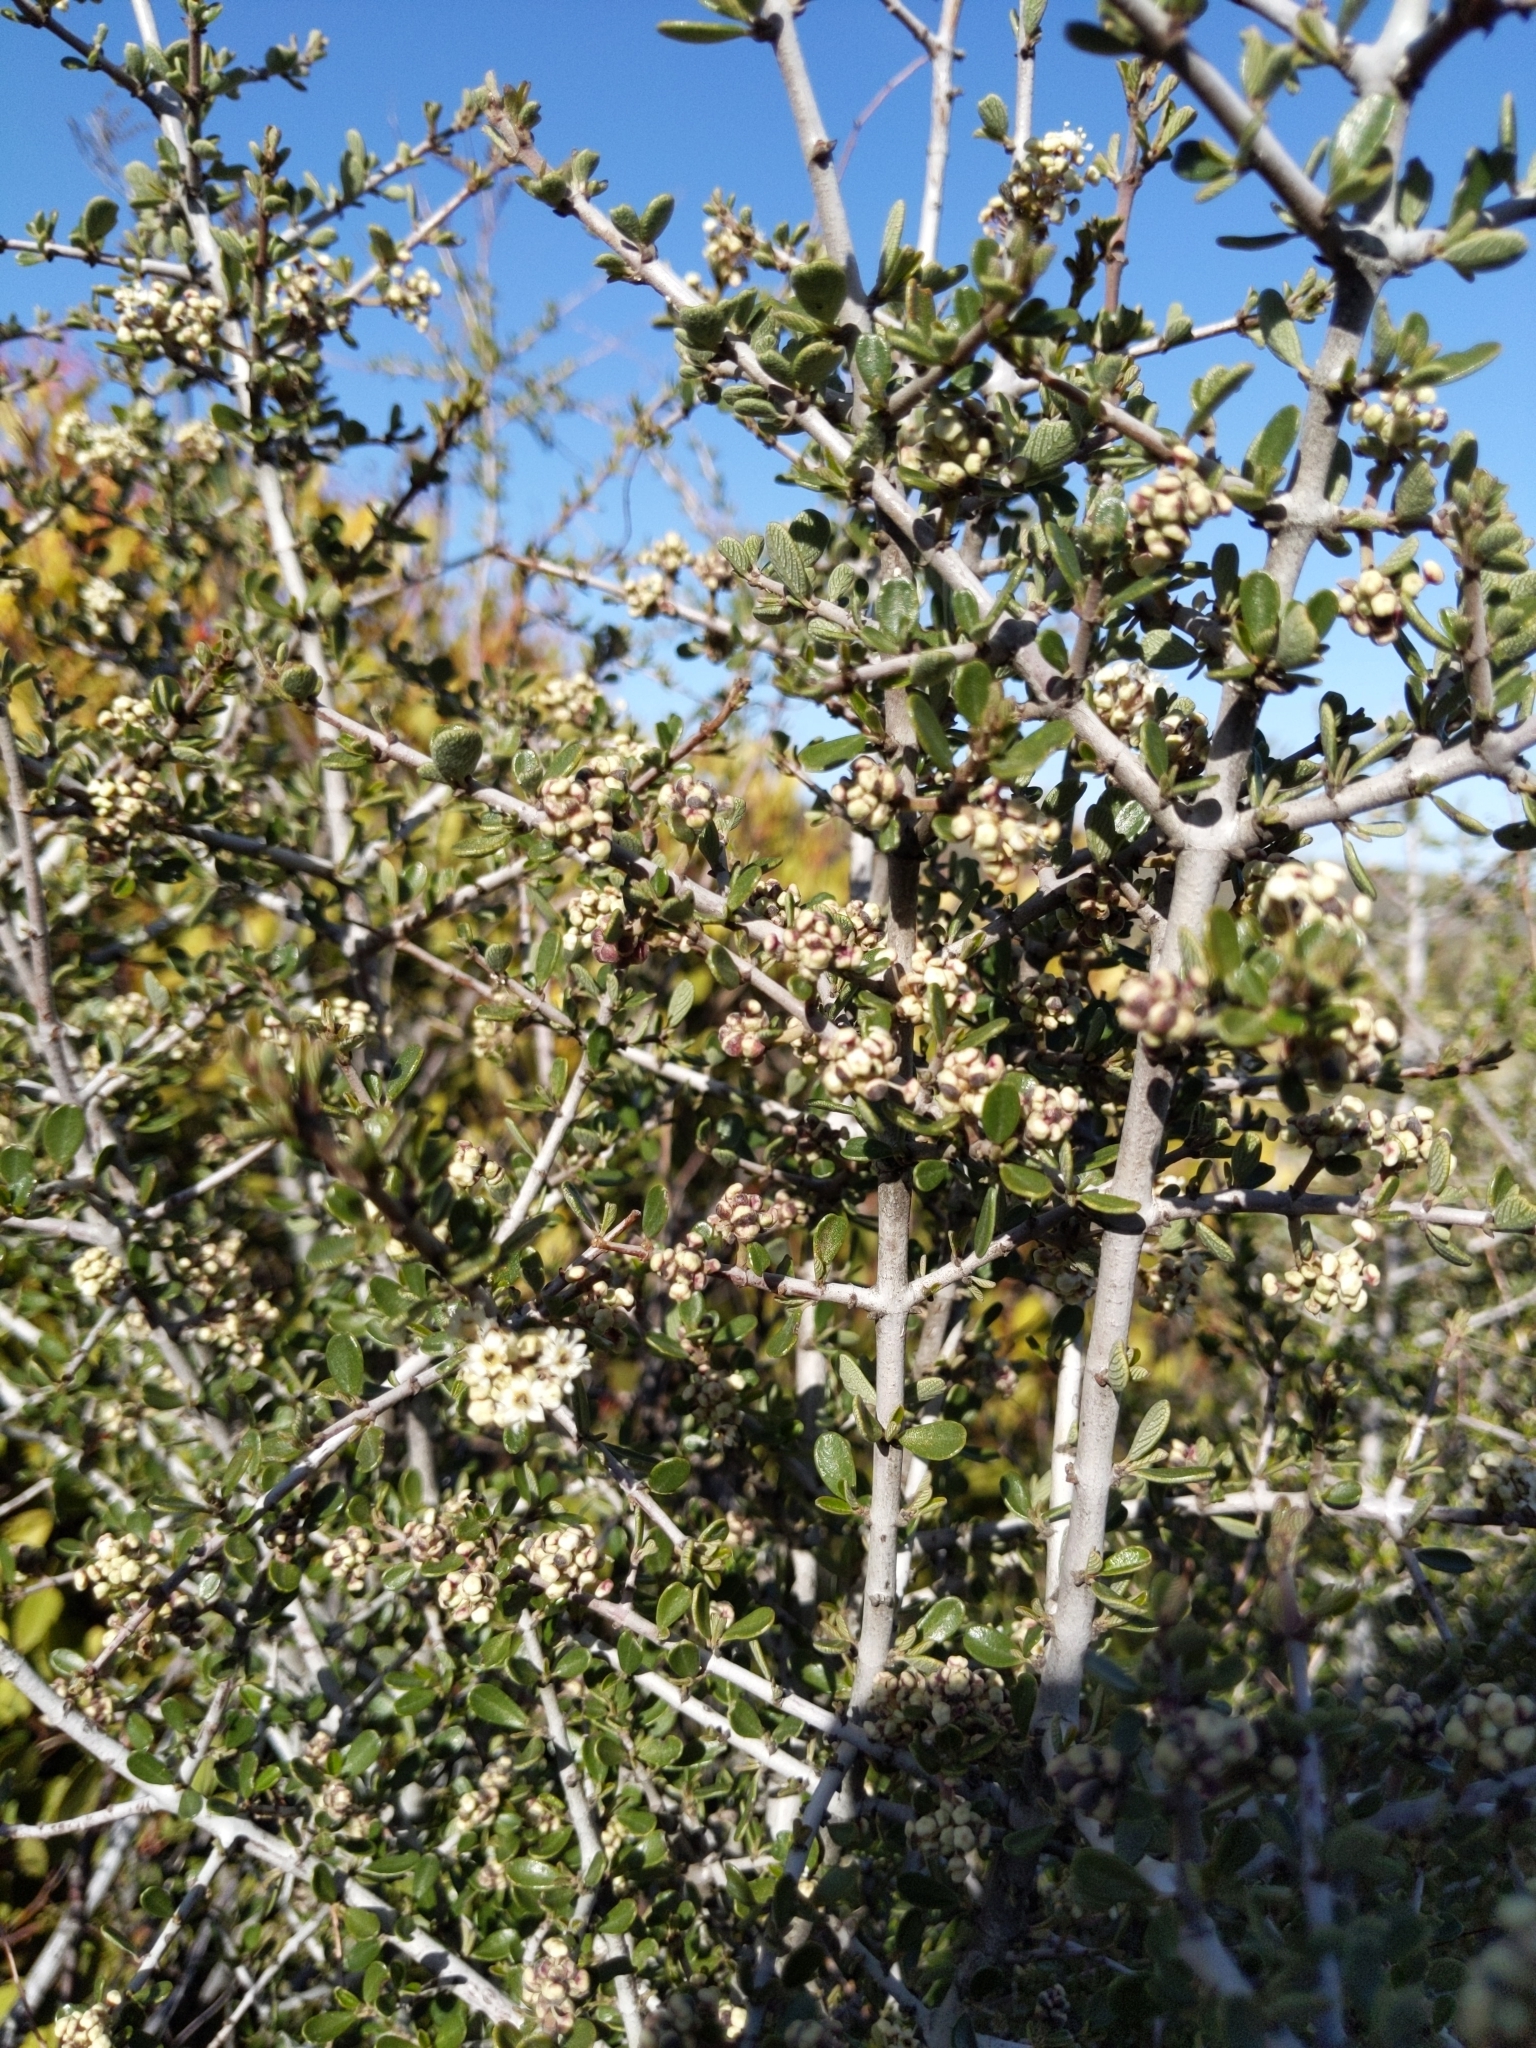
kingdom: Plantae
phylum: Tracheophyta
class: Magnoliopsida
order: Rosales
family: Rhamnaceae
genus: Ceanothus
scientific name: Ceanothus cuneatus
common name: Cuneate ceanothus
